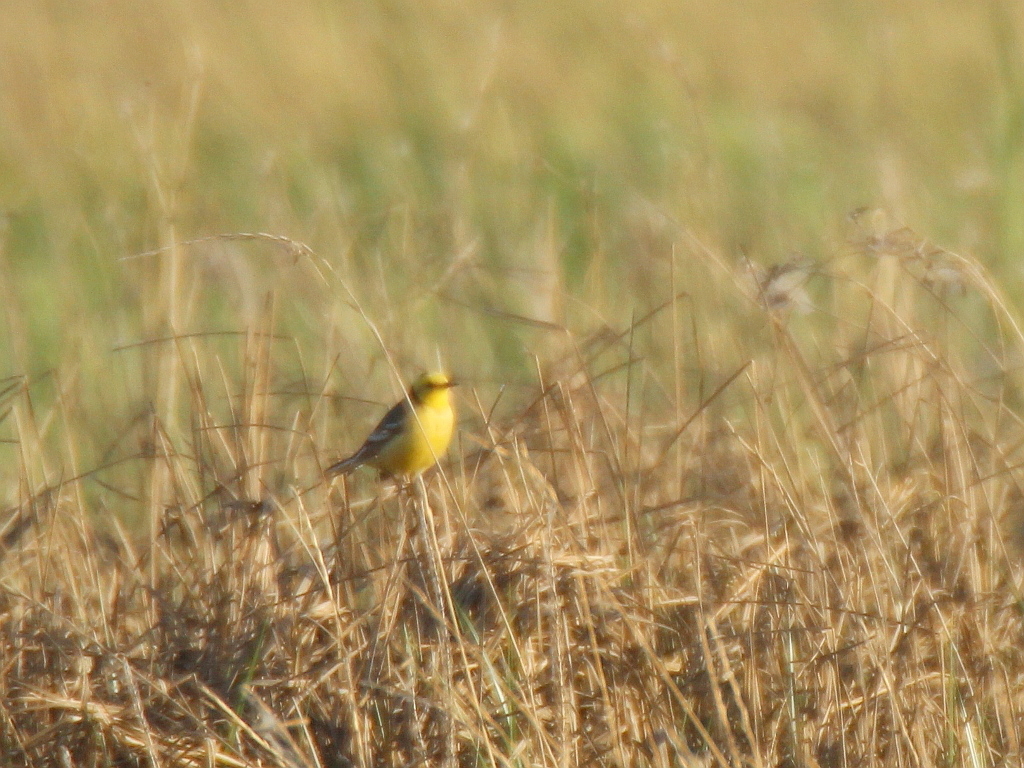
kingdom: Animalia
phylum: Chordata
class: Aves
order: Passeriformes
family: Motacillidae
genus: Motacilla
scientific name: Motacilla citreola
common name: Citrine wagtail
